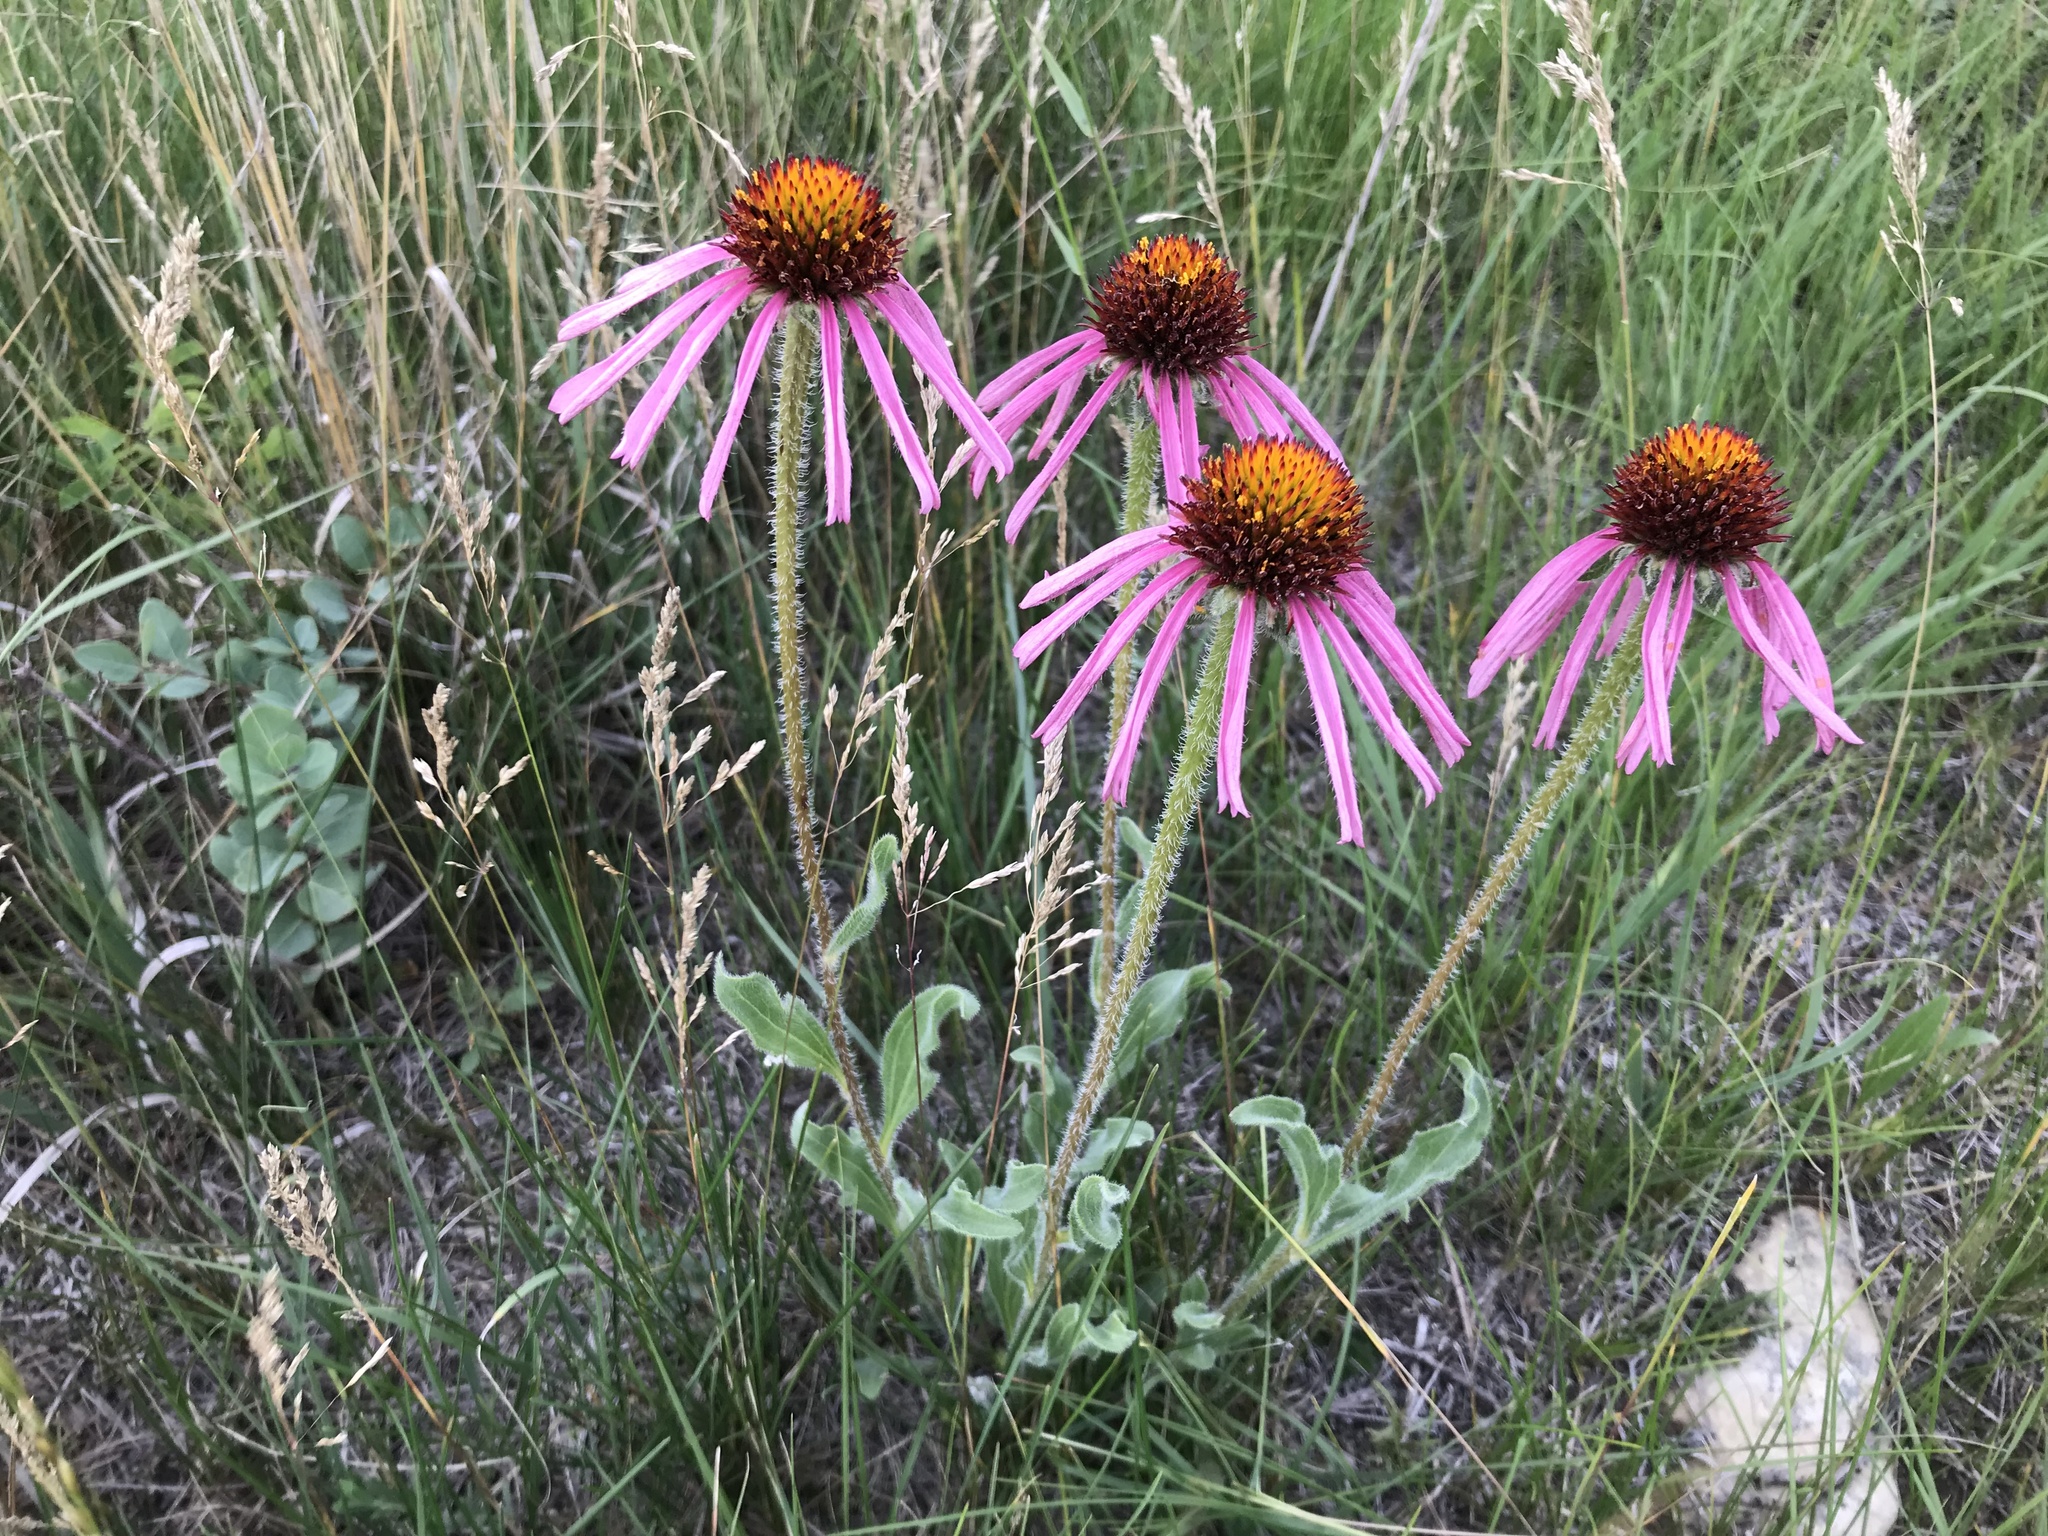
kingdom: Plantae
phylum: Tracheophyta
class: Magnoliopsida
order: Asterales
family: Asteraceae
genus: Echinacea
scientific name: Echinacea angustifolia
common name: Black-sampson echinacea
